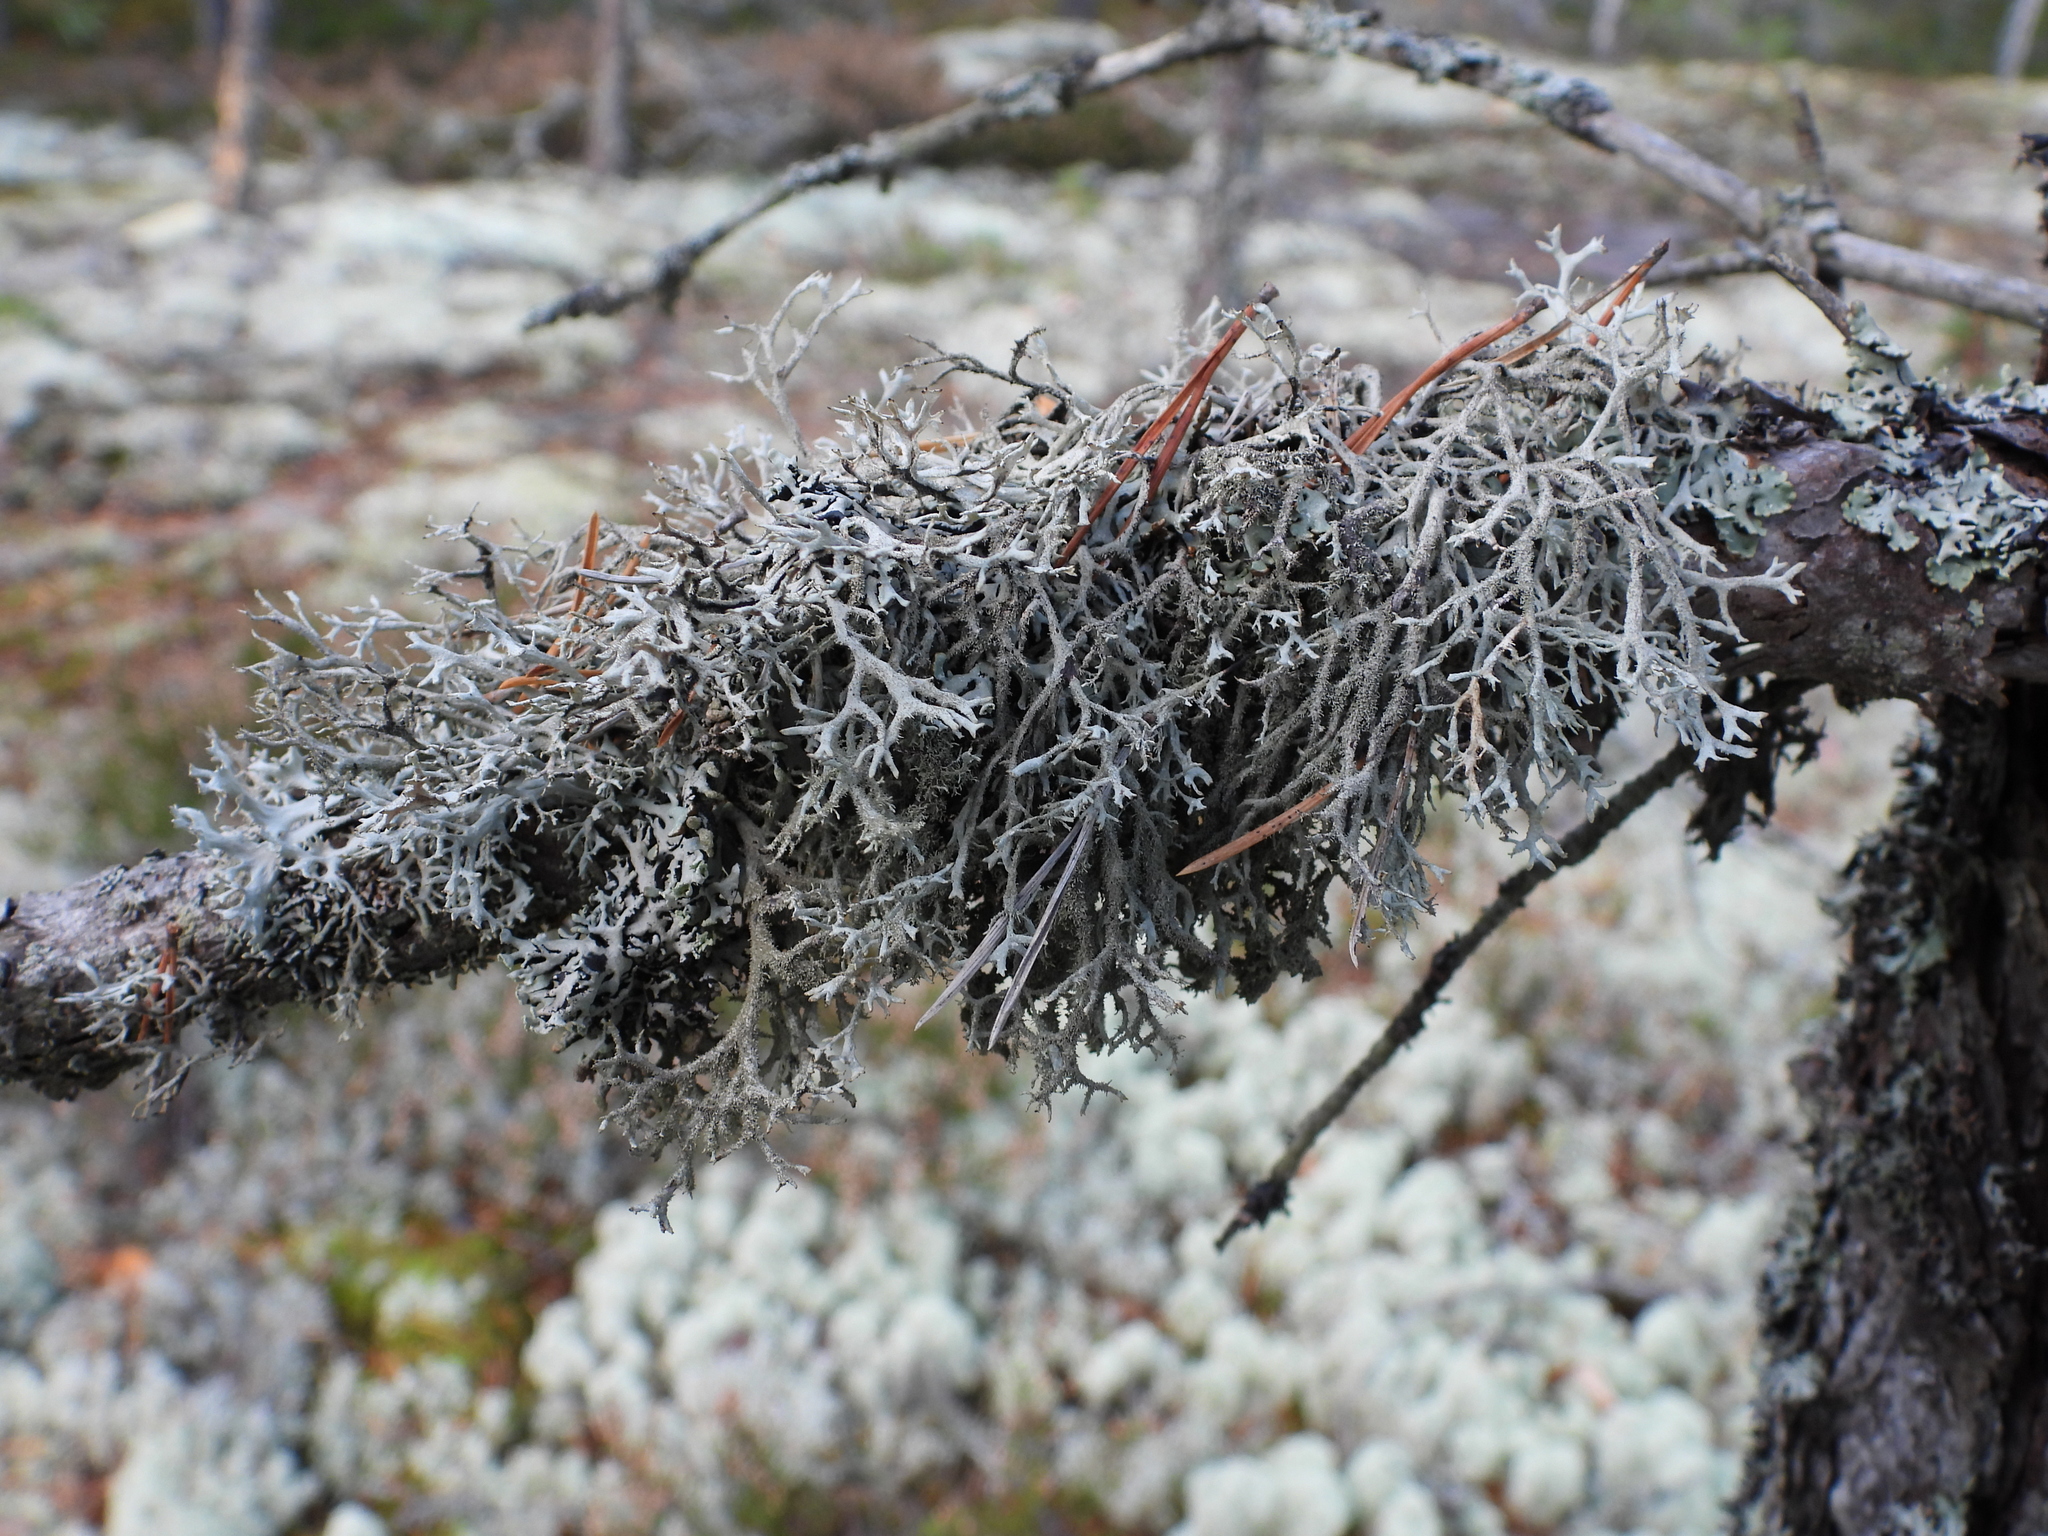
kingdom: Fungi
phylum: Ascomycota
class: Lecanoromycetes
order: Lecanorales
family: Parmeliaceae
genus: Pseudevernia
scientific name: Pseudevernia furfuracea
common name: Tree moss
